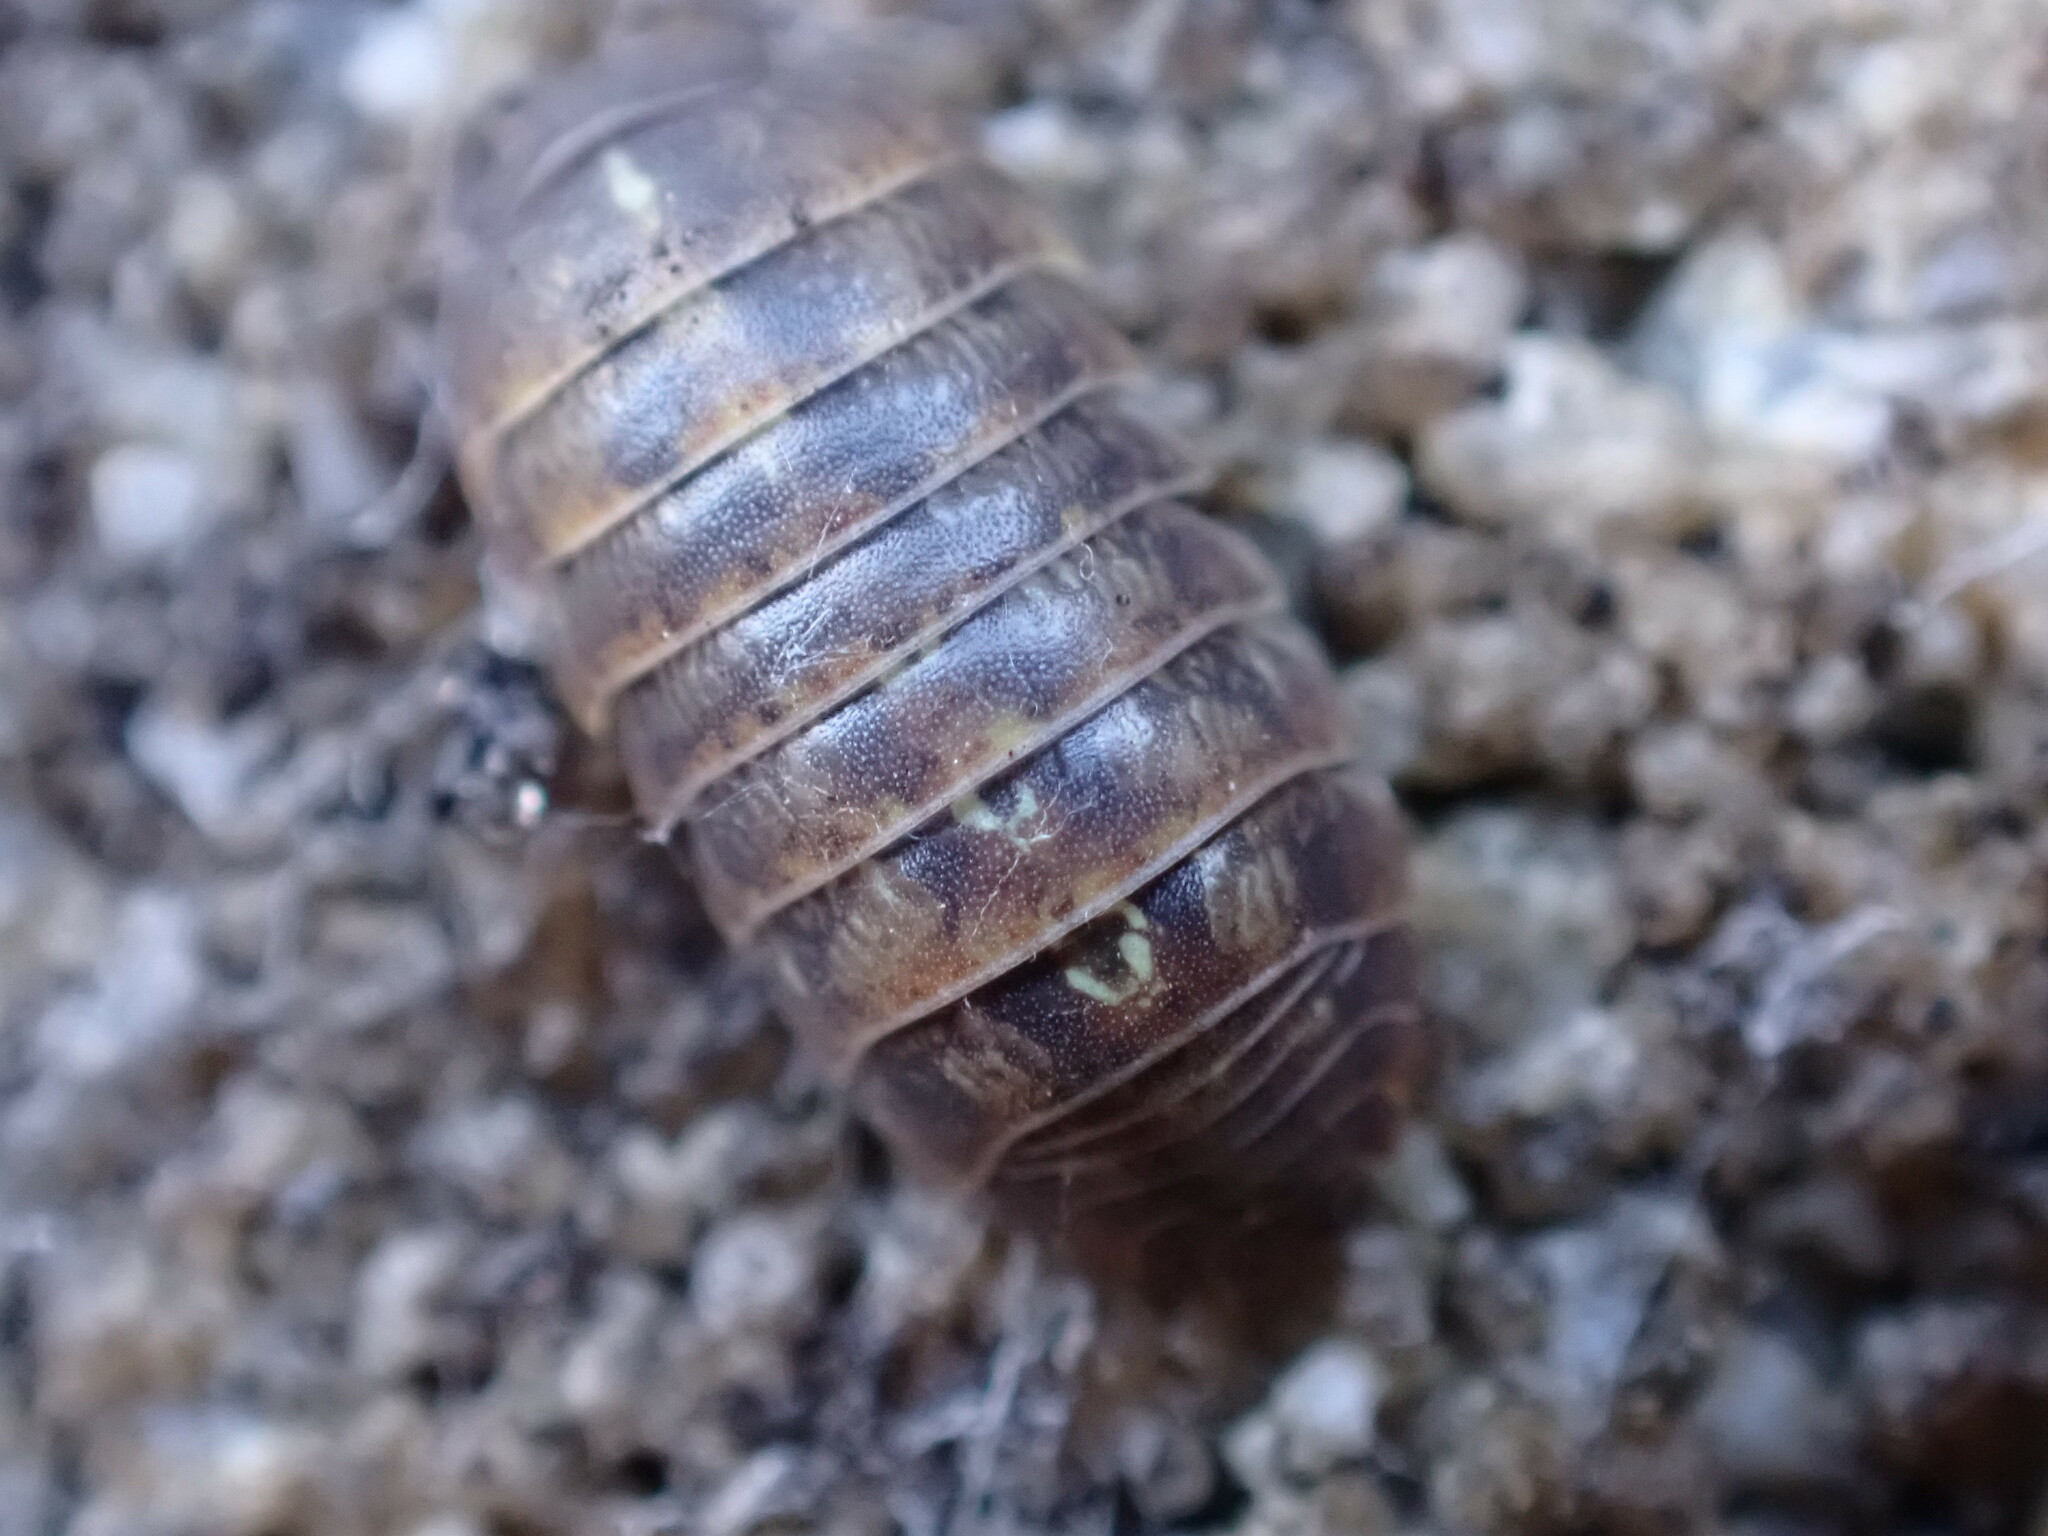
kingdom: Animalia
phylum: Arthropoda
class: Malacostraca
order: Isopoda
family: Armadillidiidae
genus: Armadillidium
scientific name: Armadillidium vulgare
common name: Common pill woodlouse
